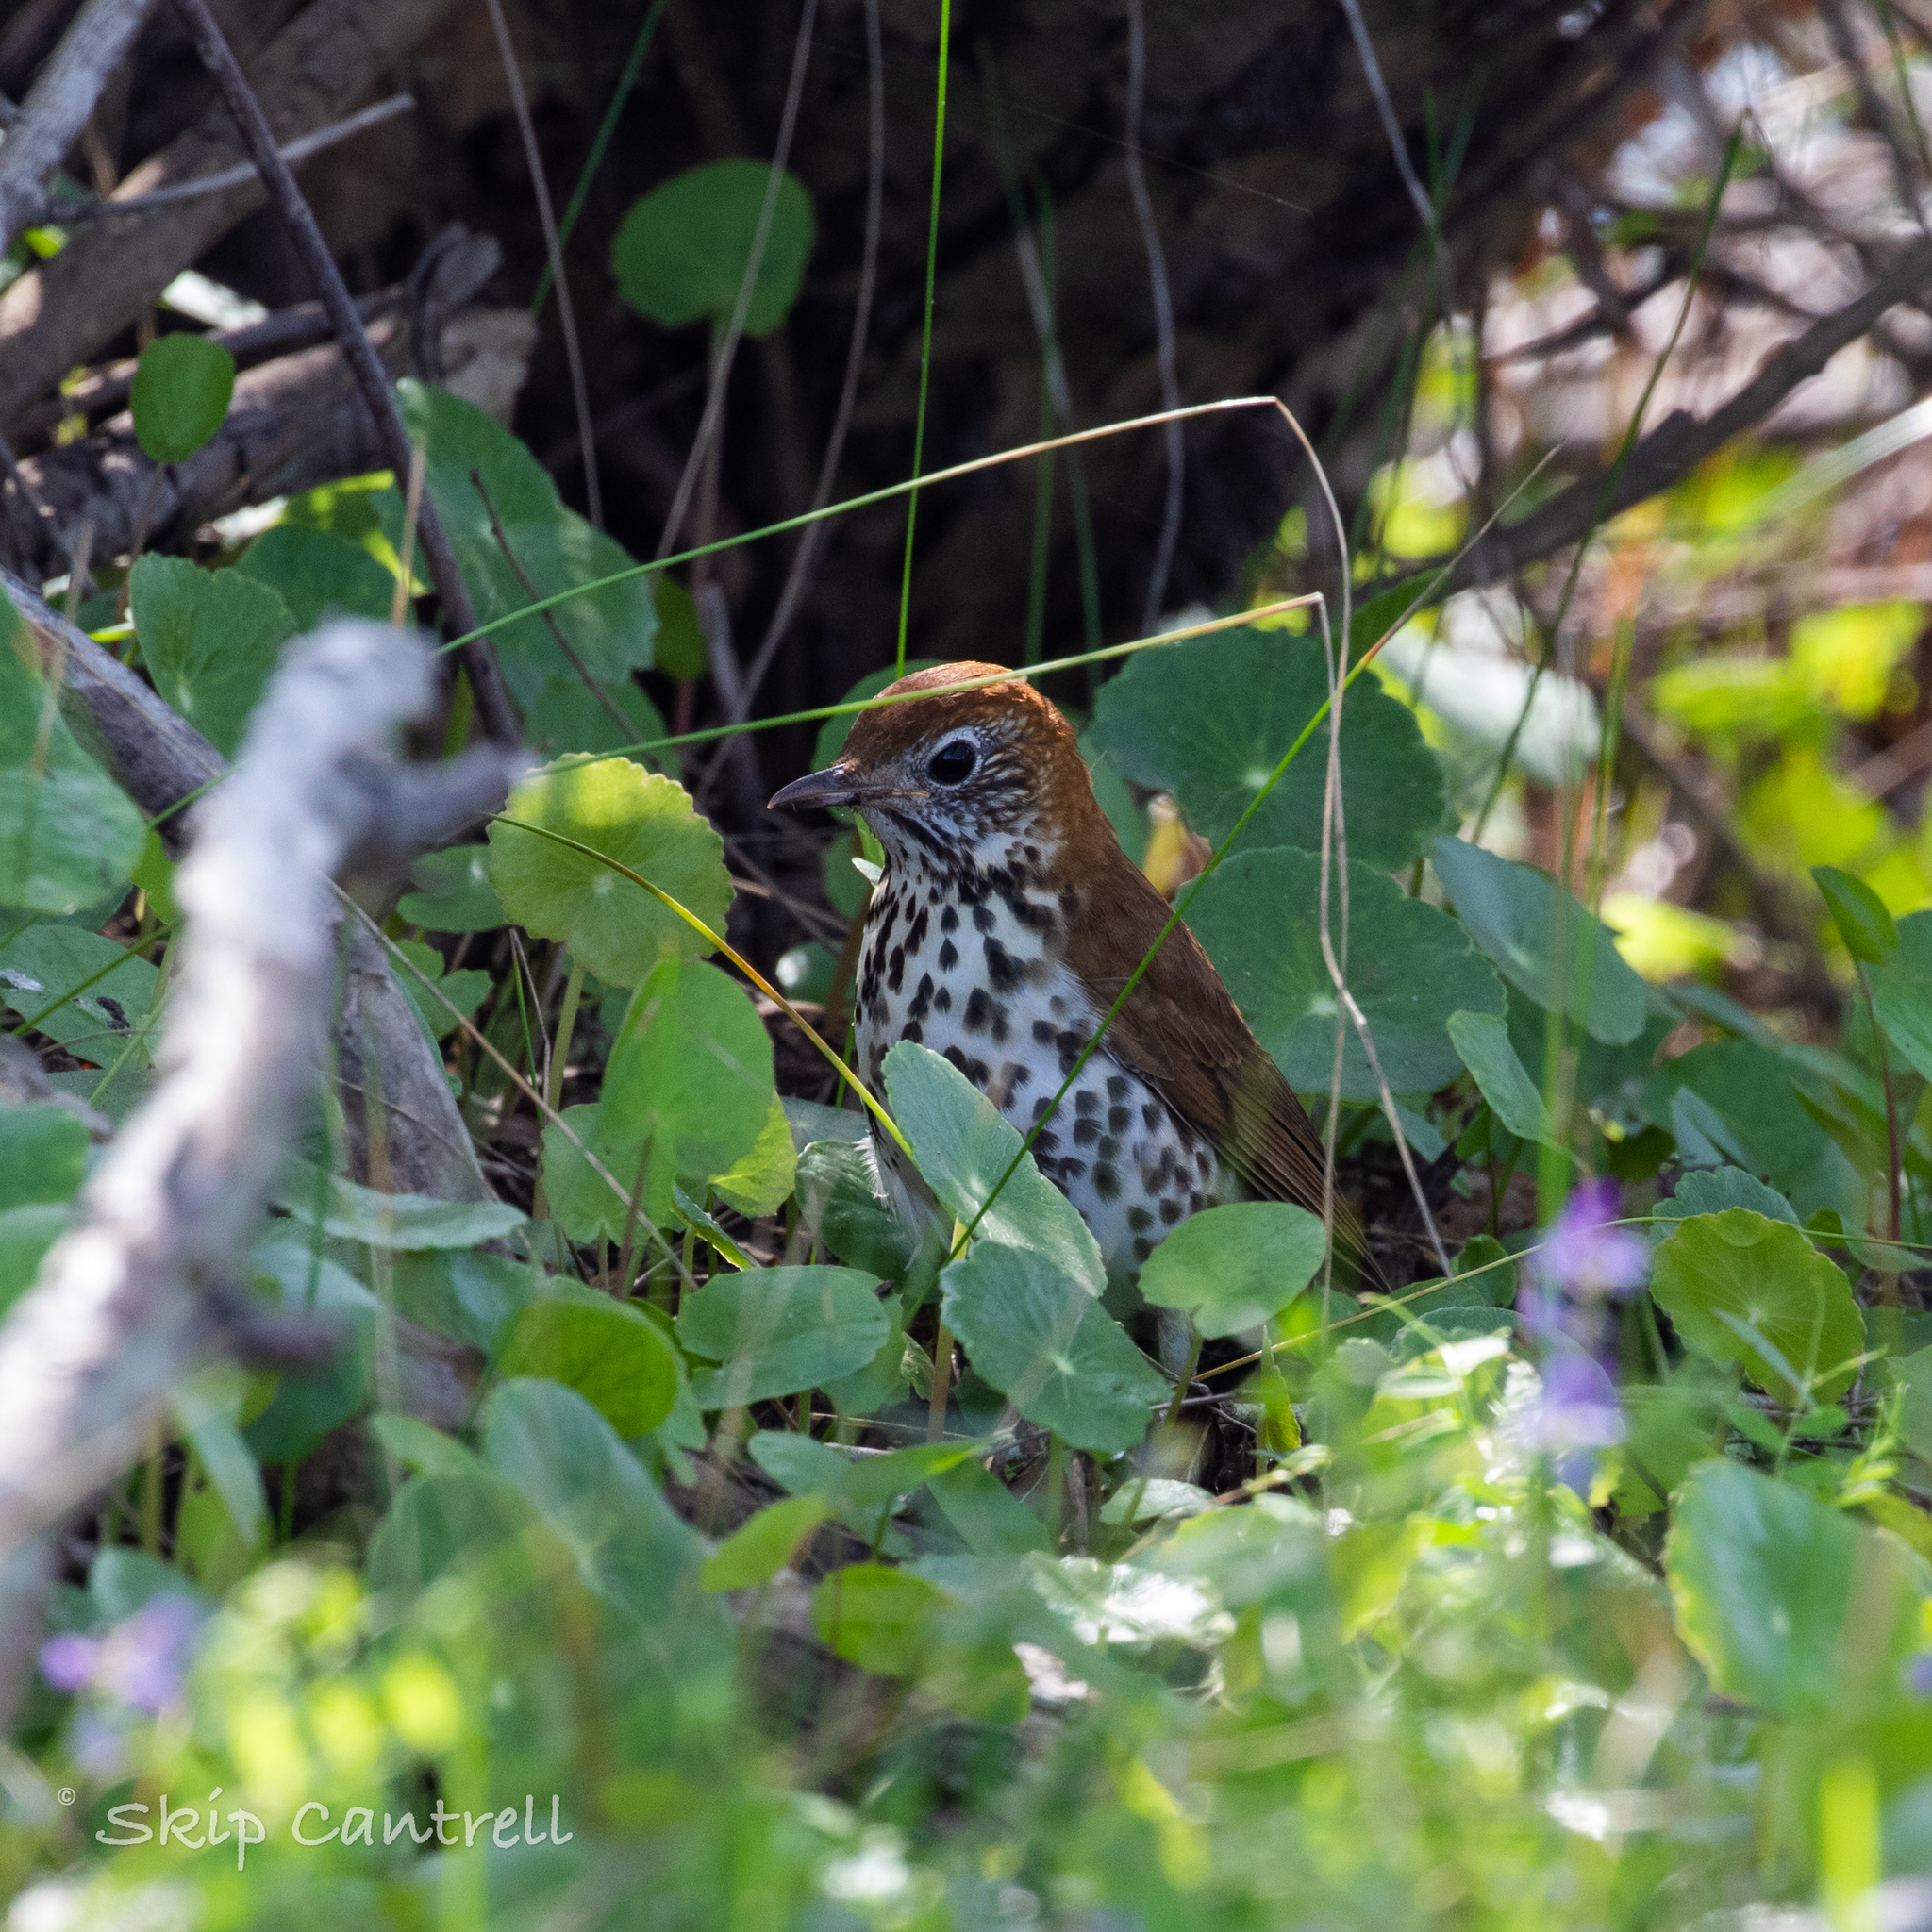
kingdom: Animalia
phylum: Chordata
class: Aves
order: Passeriformes
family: Turdidae
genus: Hylocichla
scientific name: Hylocichla mustelina
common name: Wood thrush
